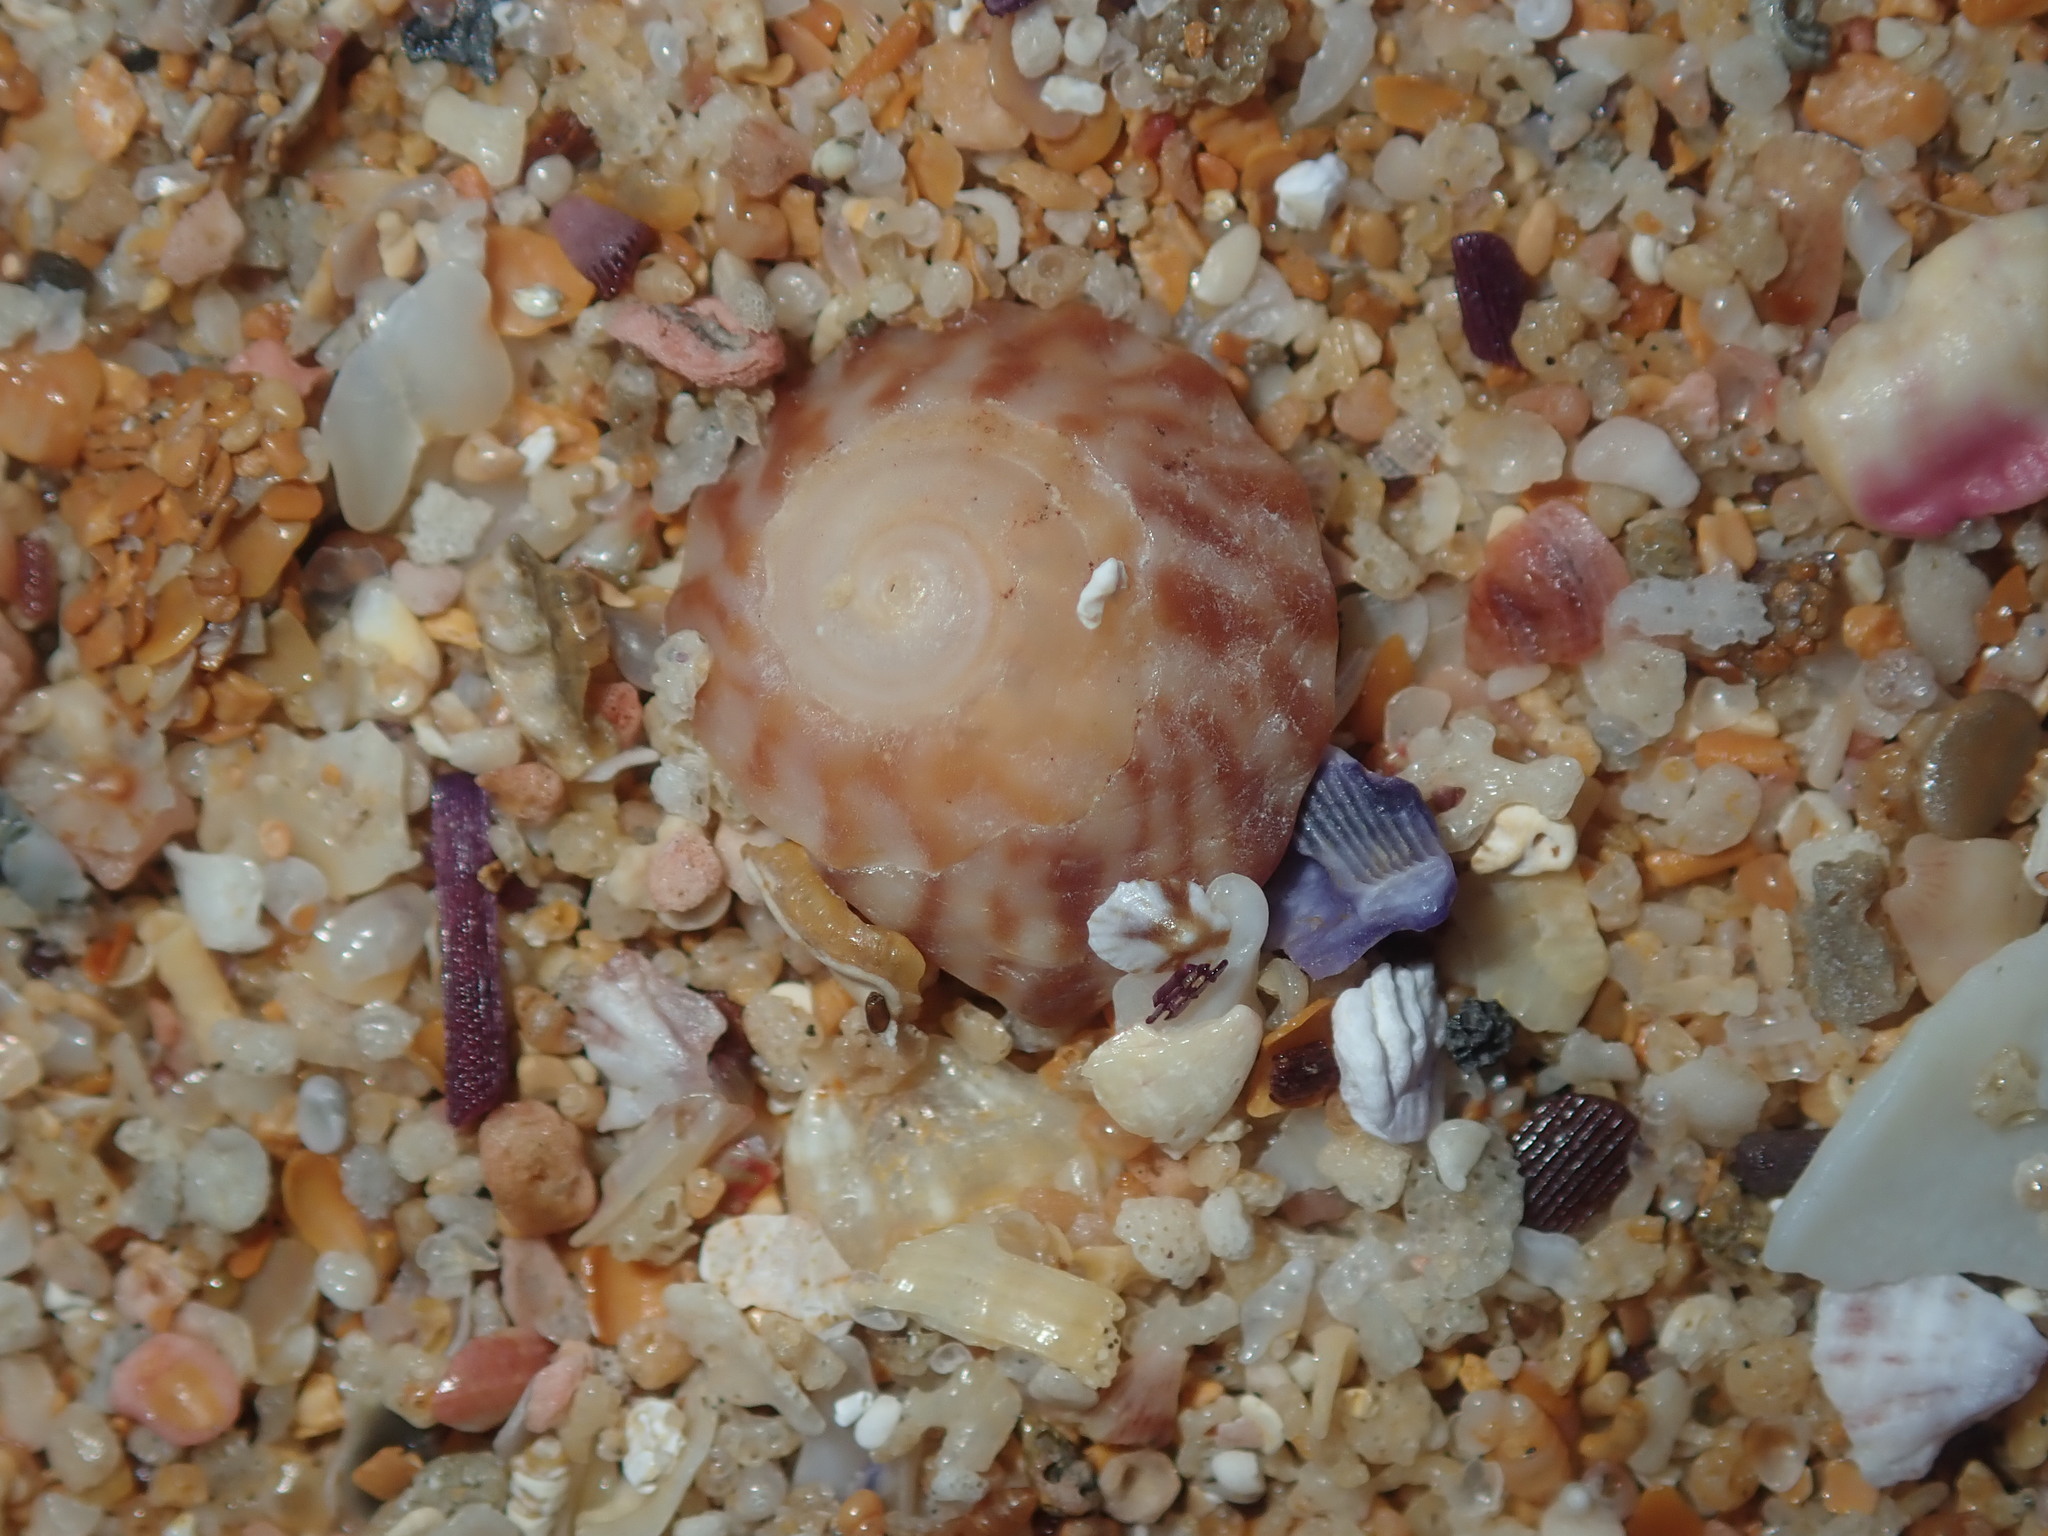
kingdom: Animalia
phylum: Mollusca
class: Gastropoda
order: Littorinimorpha
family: Littorinidae
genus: Bembicium
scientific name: Bembicium nanum
